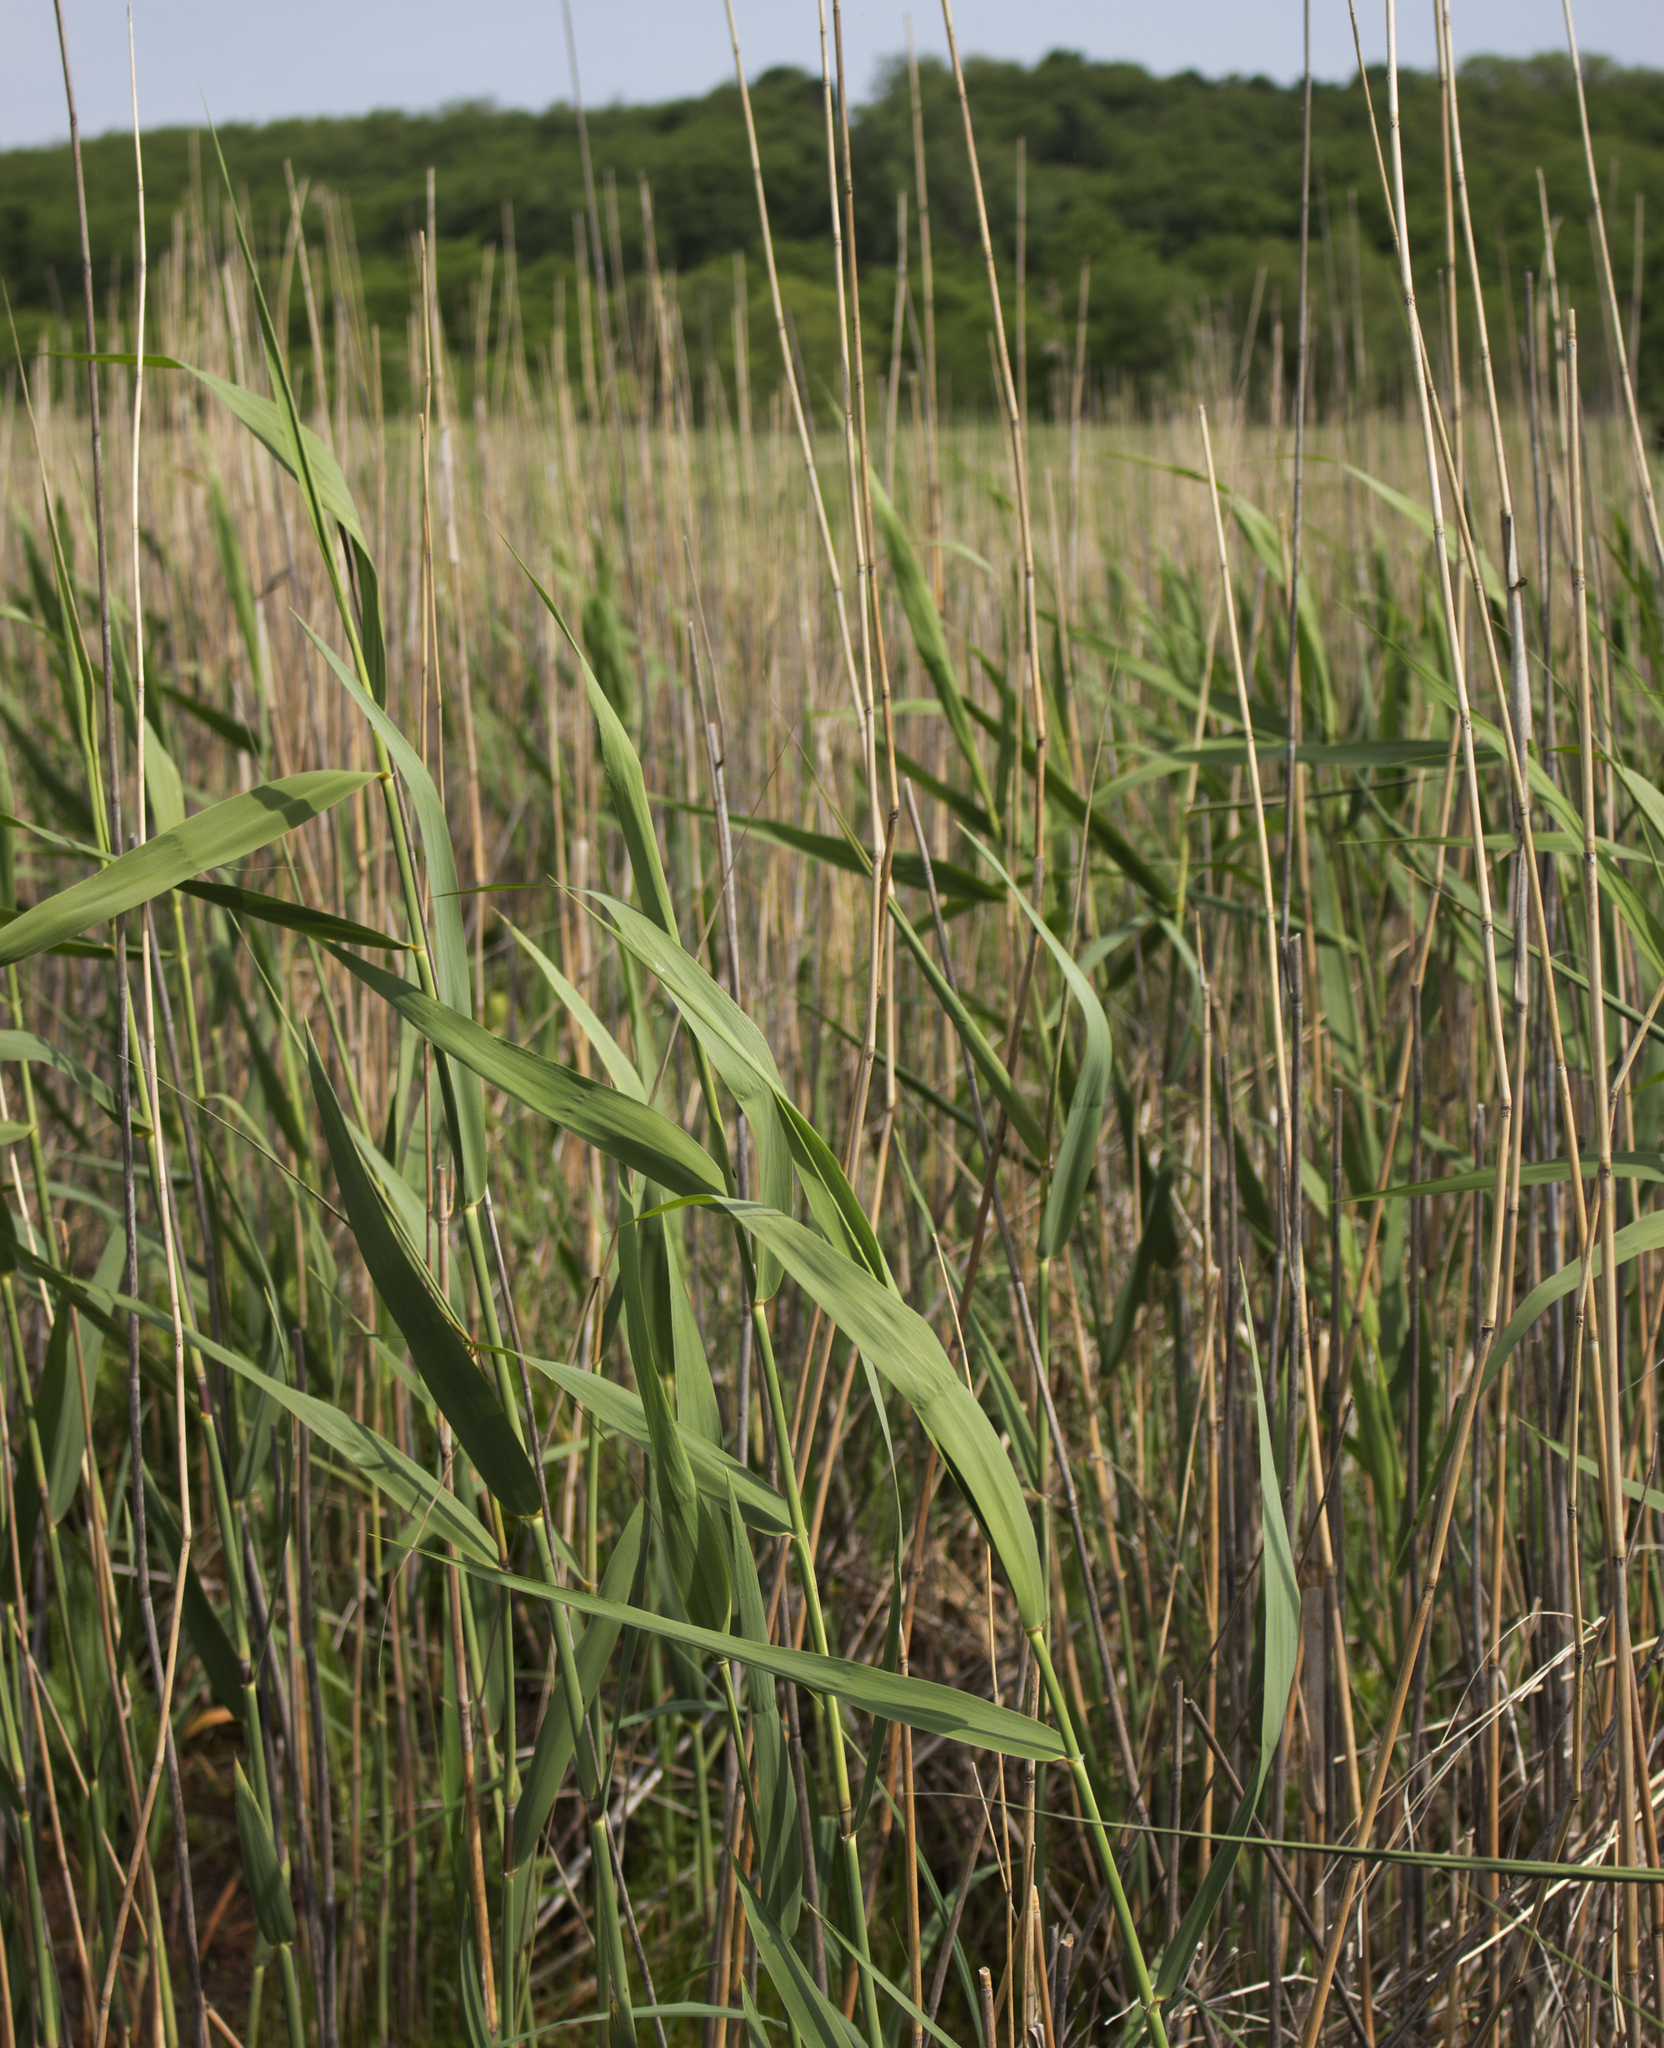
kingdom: Plantae
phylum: Tracheophyta
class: Liliopsida
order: Poales
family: Poaceae
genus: Phragmites
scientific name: Phragmites australis
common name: Common reed
